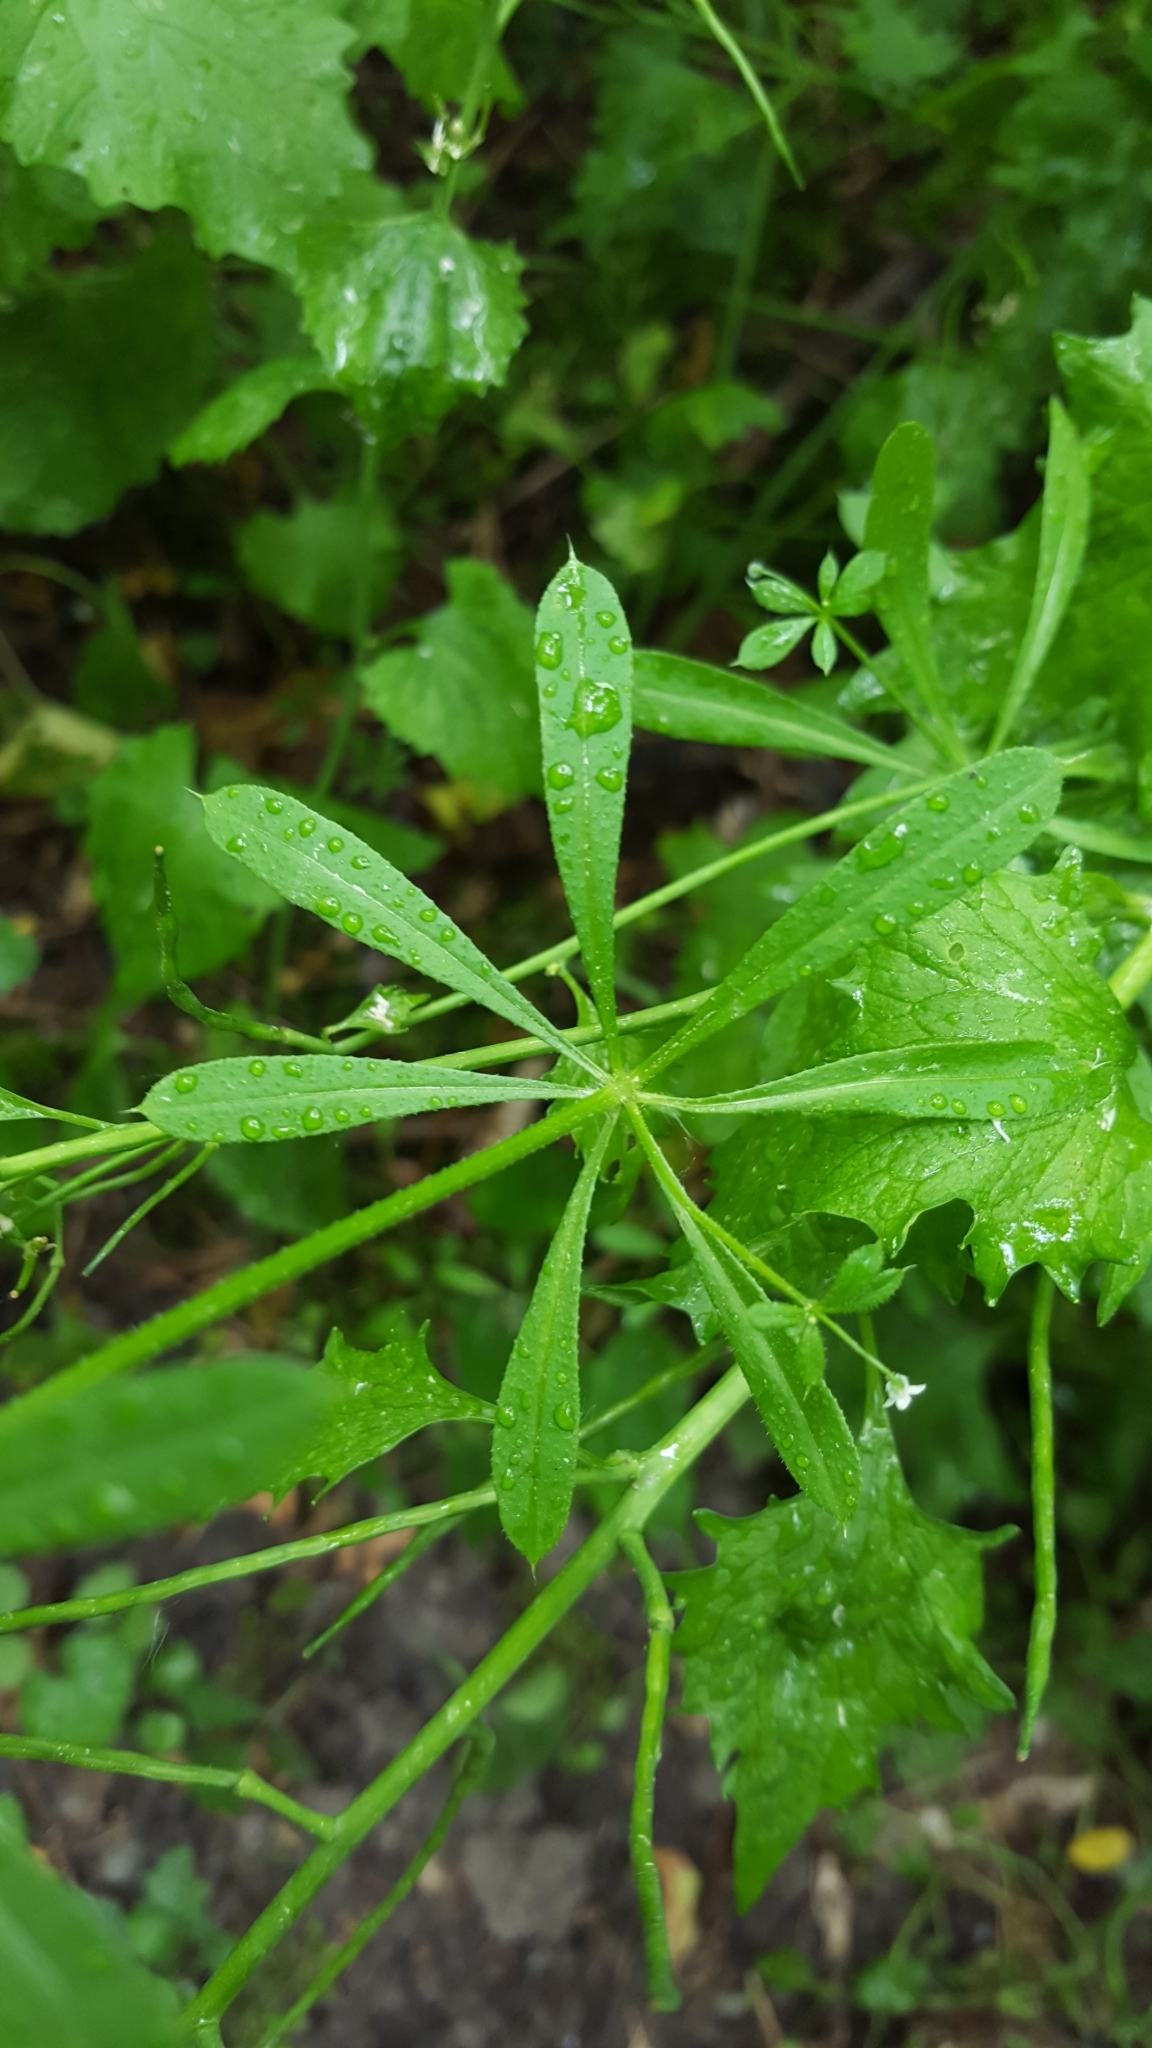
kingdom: Plantae
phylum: Tracheophyta
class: Magnoliopsida
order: Gentianales
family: Rubiaceae
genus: Galium
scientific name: Galium aparine
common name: Cleavers
